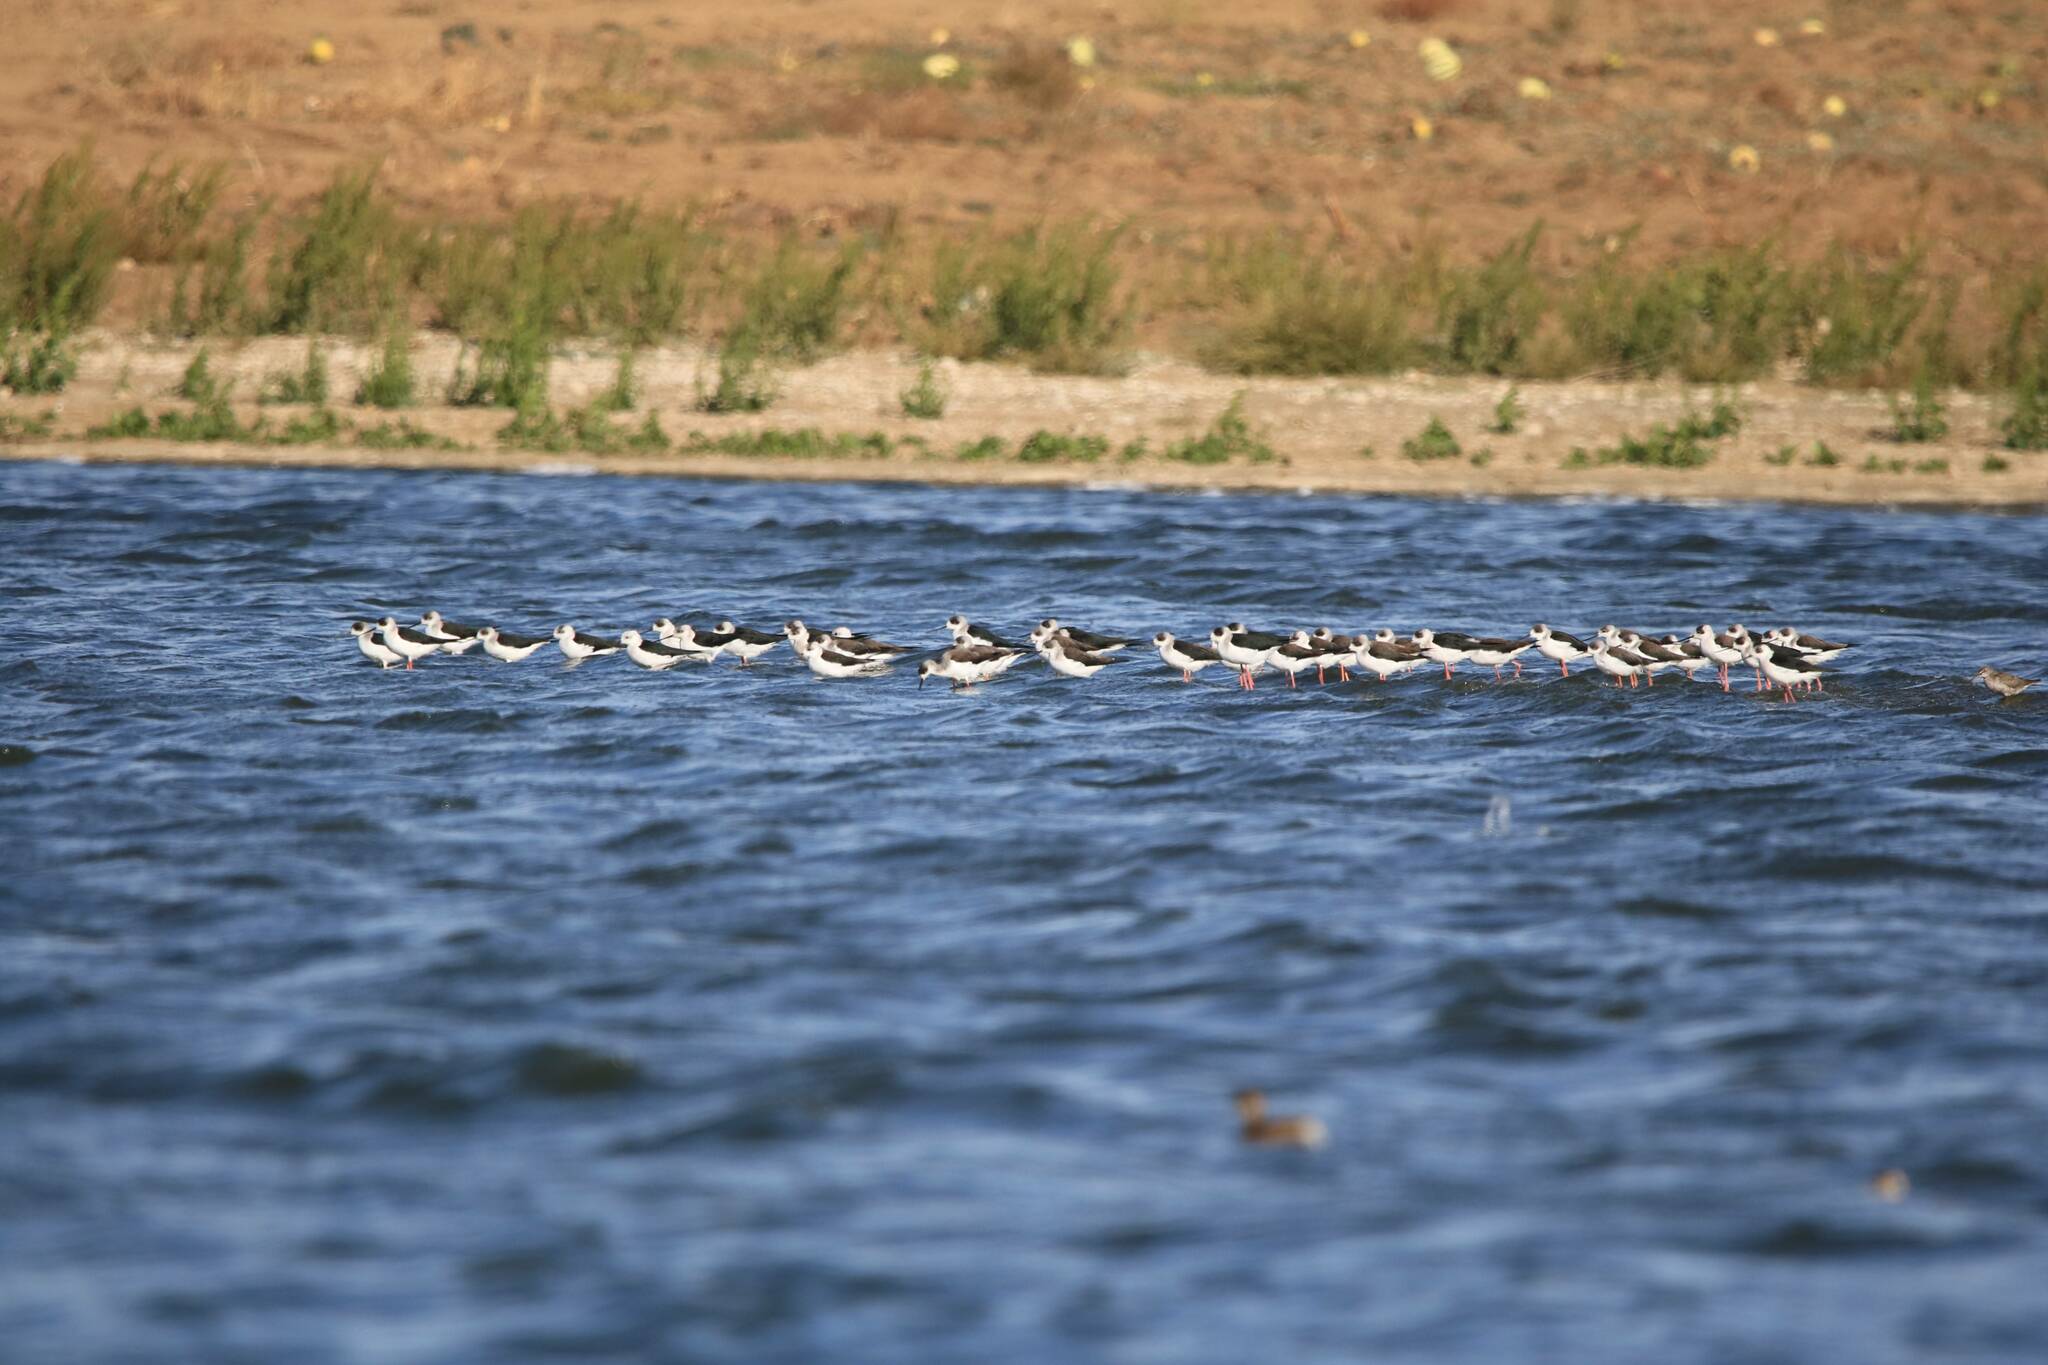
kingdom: Animalia
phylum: Chordata
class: Aves
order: Charadriiformes
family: Recurvirostridae
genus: Himantopus
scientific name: Himantopus himantopus
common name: Black-winged stilt
